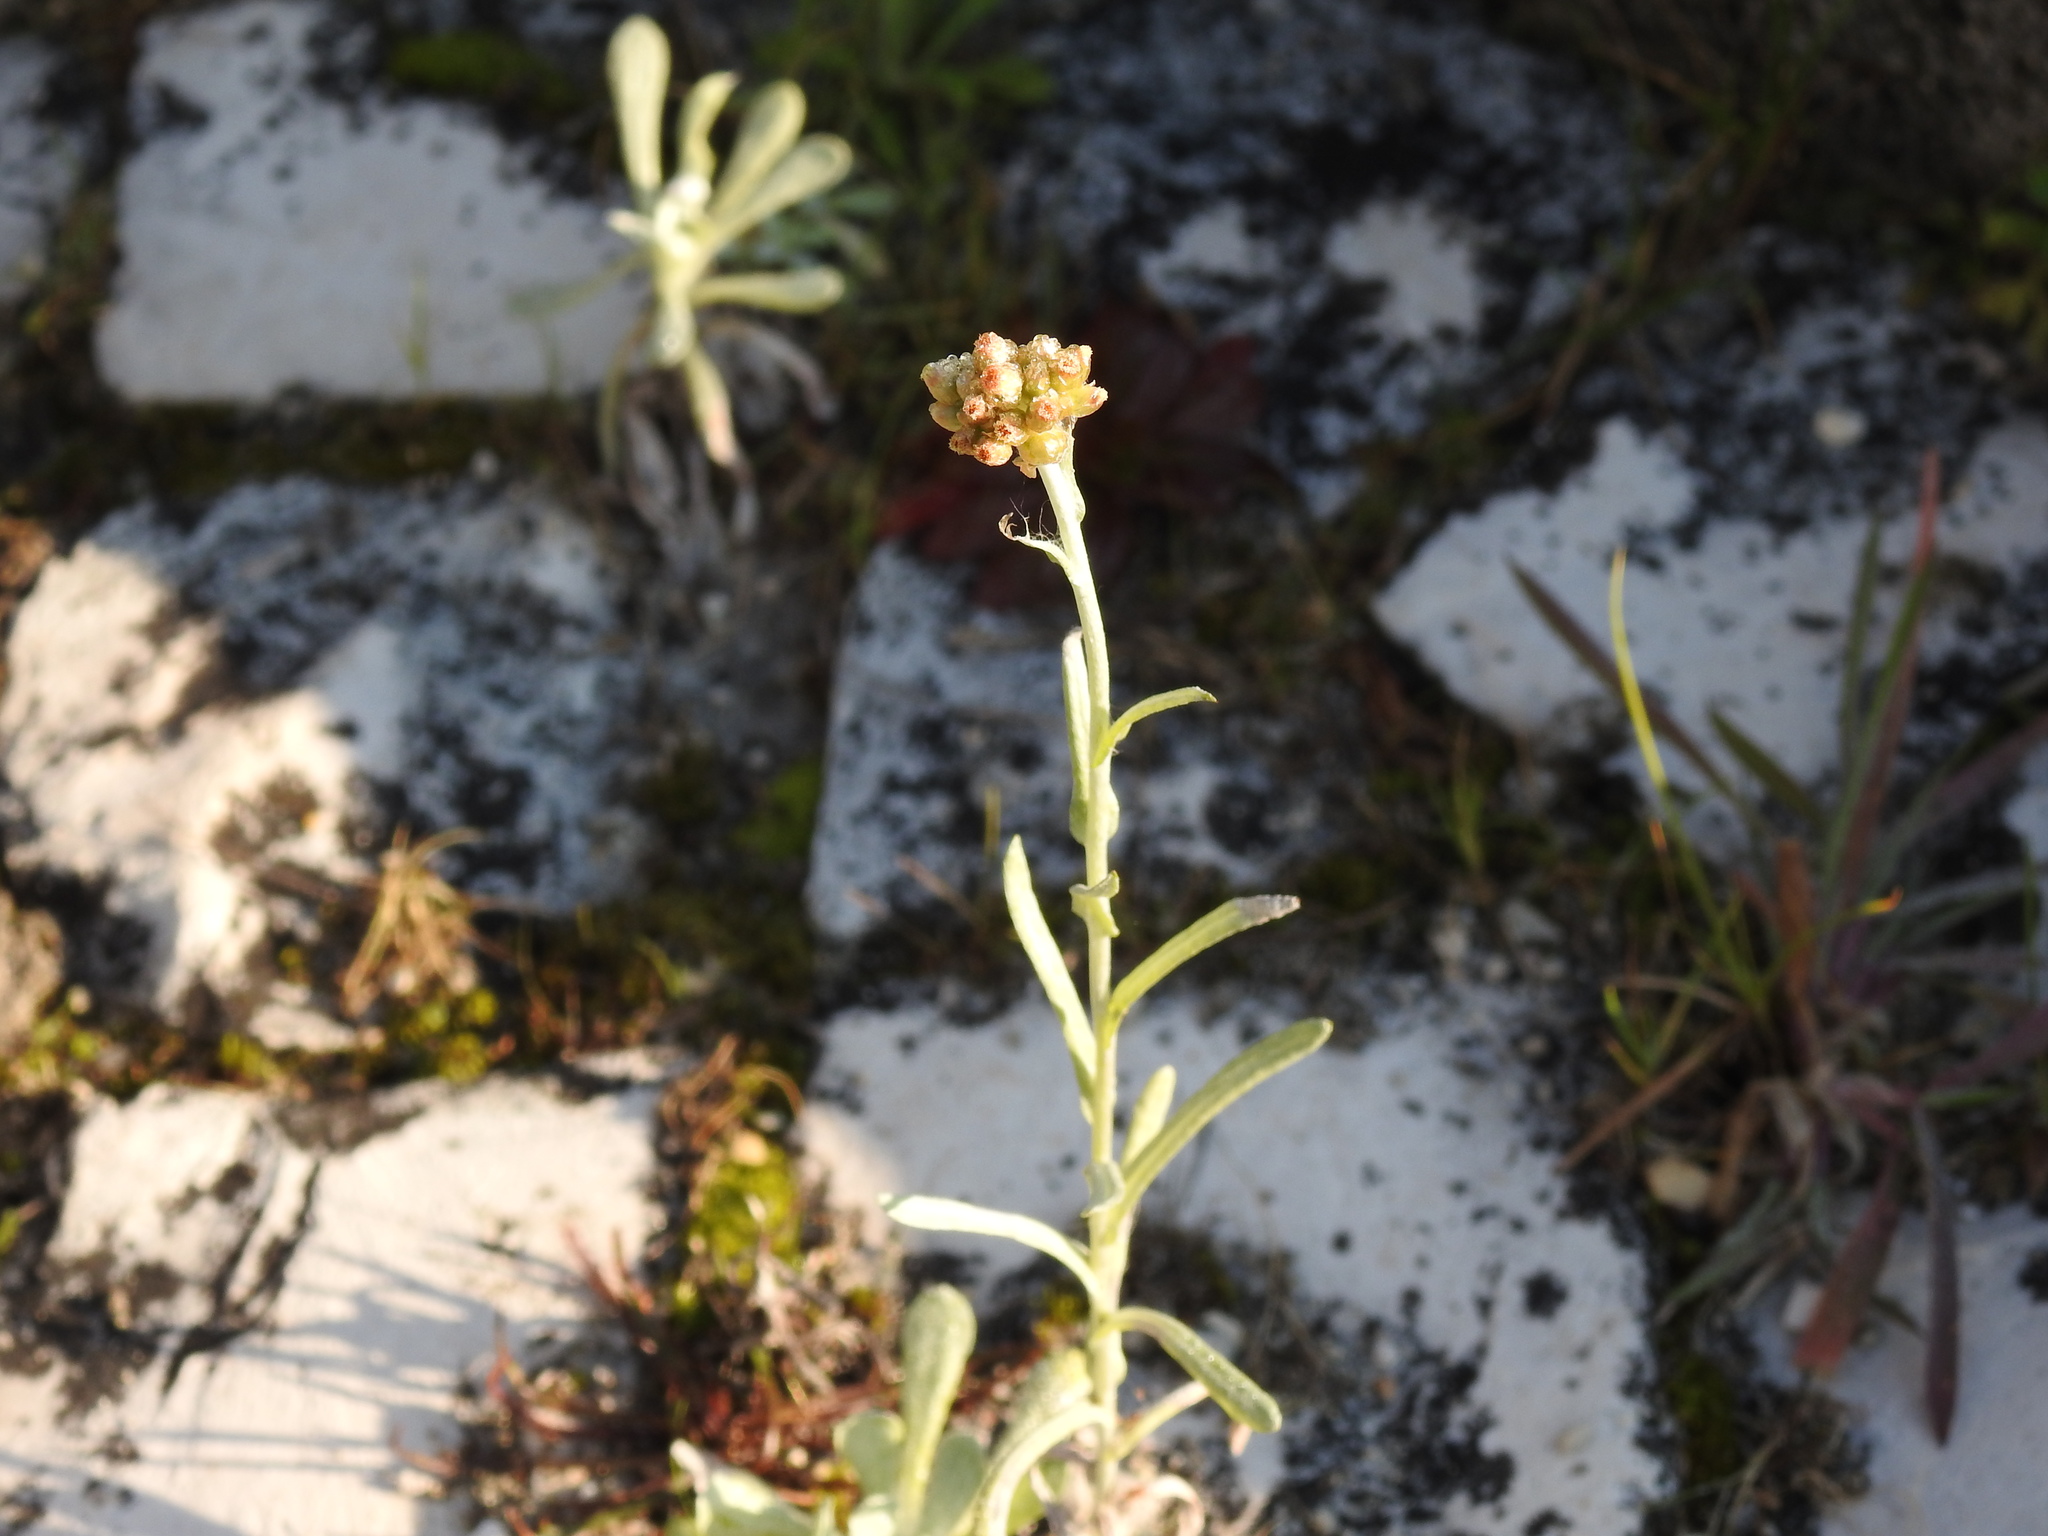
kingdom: Plantae
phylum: Tracheophyta
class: Magnoliopsida
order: Asterales
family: Asteraceae
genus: Helichrysum
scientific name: Helichrysum luteoalbum
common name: Daisy
